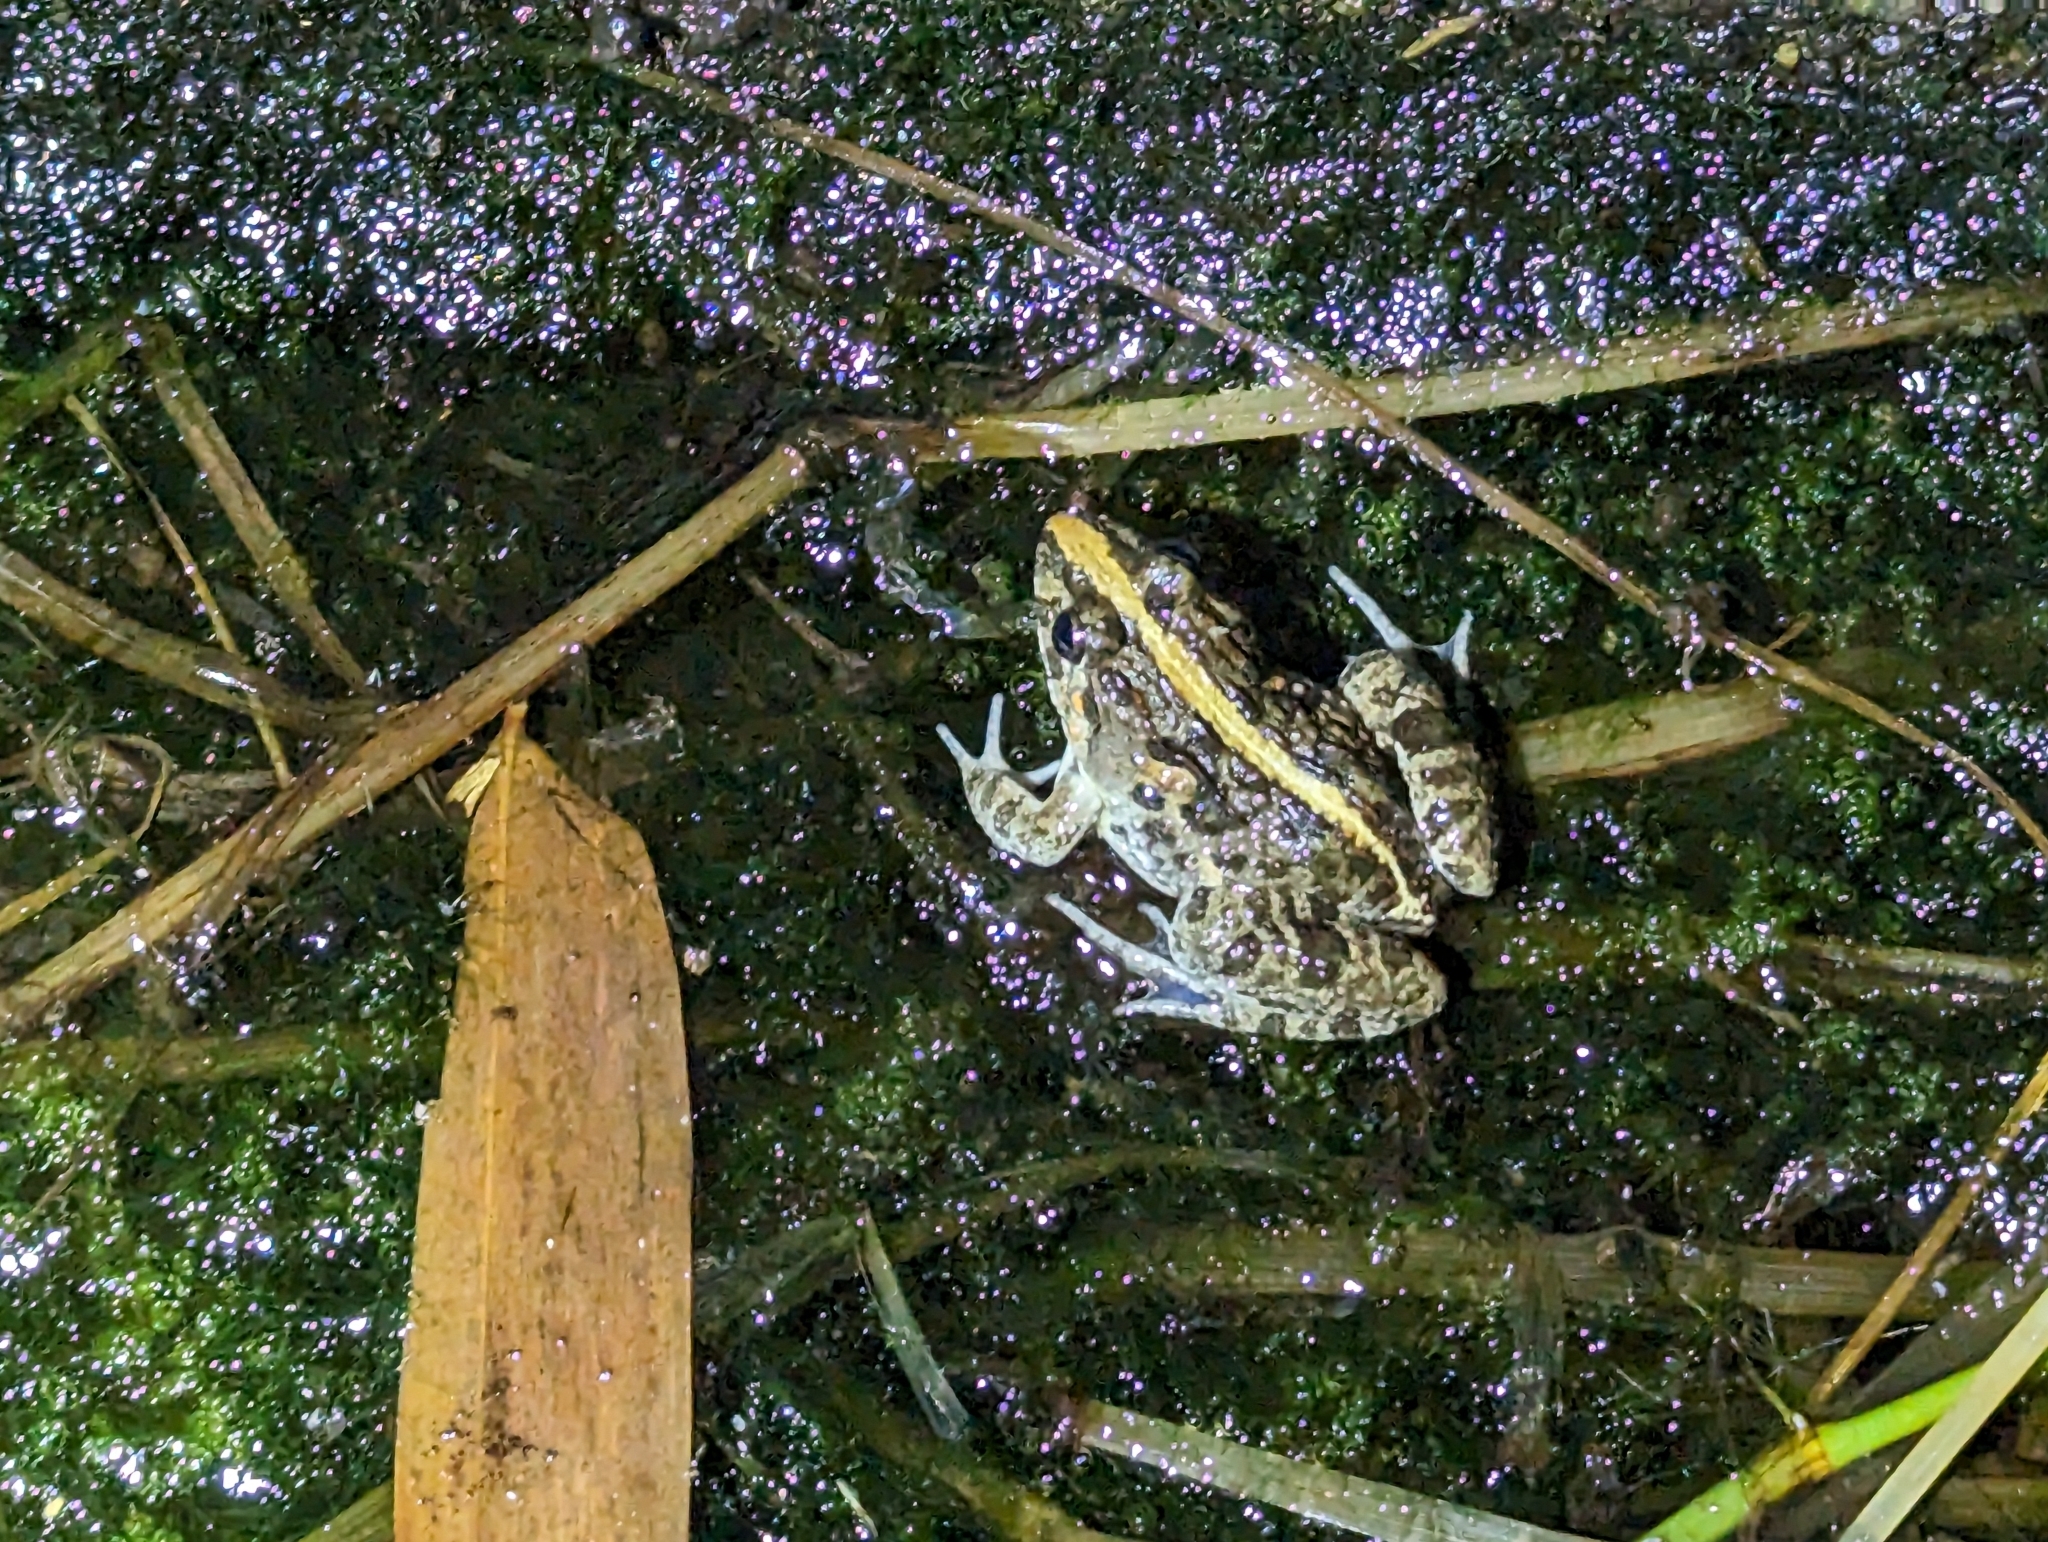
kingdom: Animalia
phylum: Chordata
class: Amphibia
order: Anura
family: Dicroglossidae
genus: Fejervarya
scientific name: Fejervarya limnocharis
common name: Asian grass frog/common pond frog/field frog/grass frog/indian rice frog
